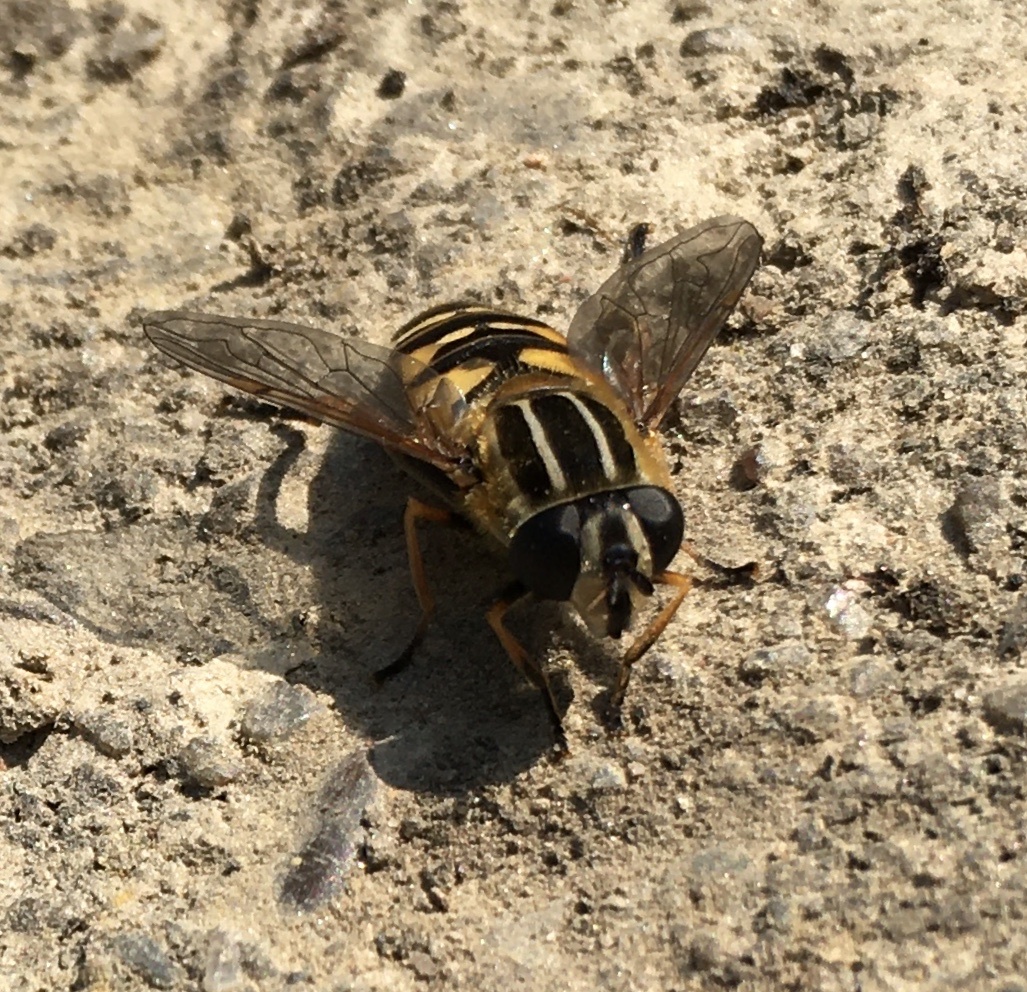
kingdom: Animalia
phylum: Arthropoda
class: Insecta
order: Diptera
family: Syrphidae
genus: Helophilus
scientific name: Helophilus pendulus
